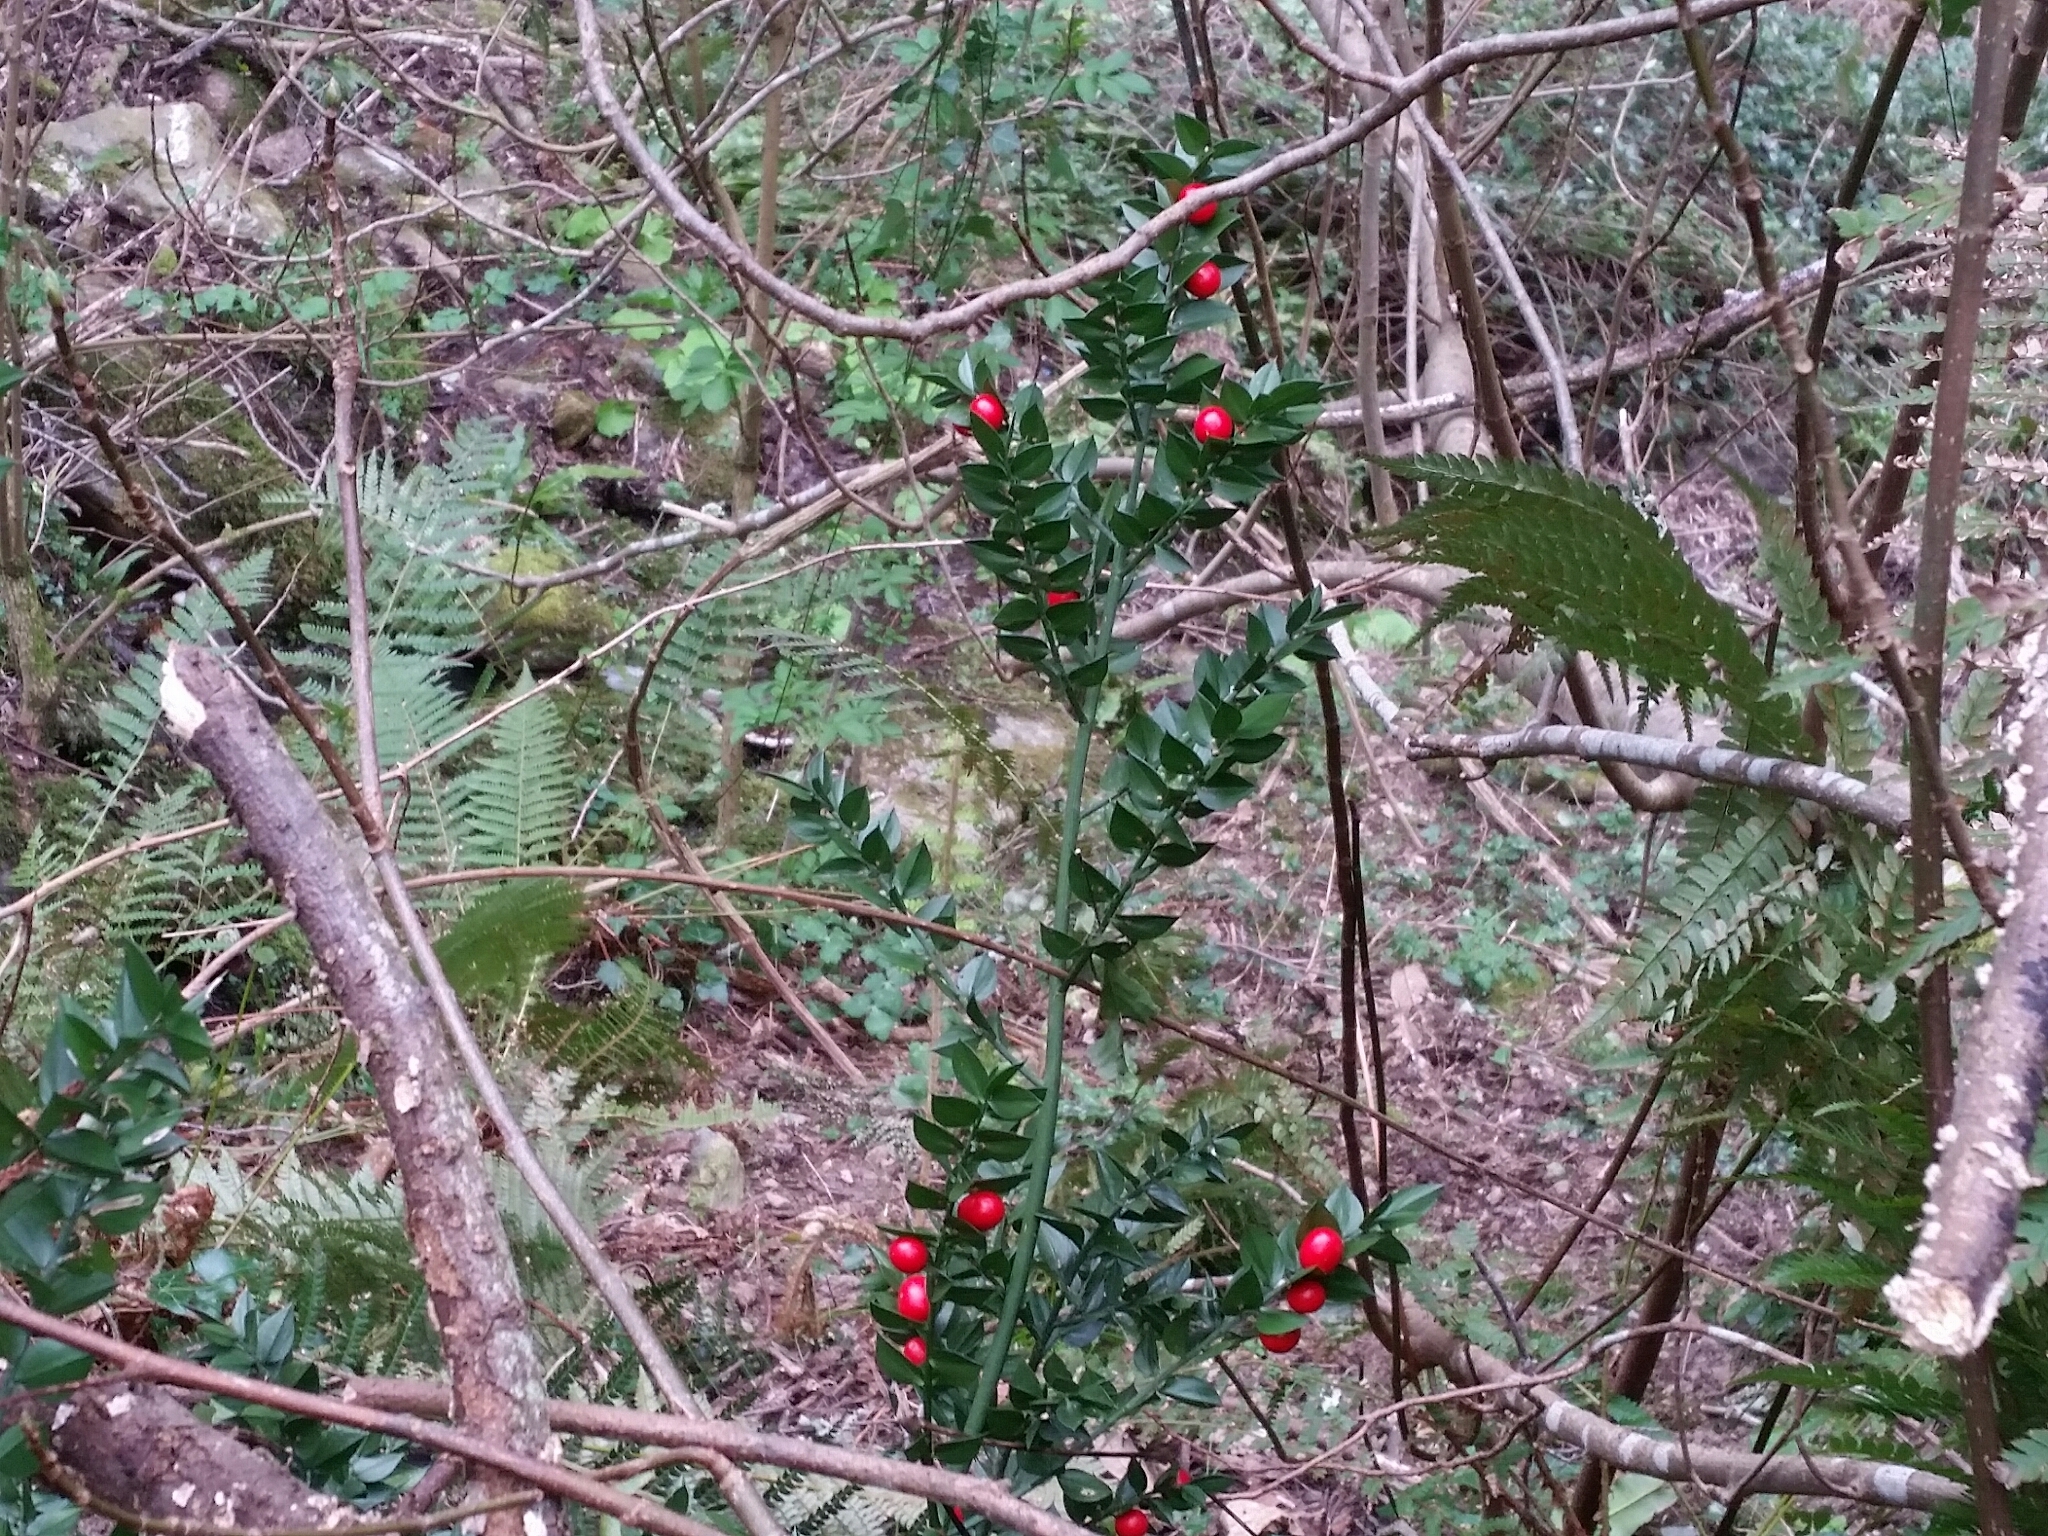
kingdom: Plantae
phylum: Tracheophyta
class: Liliopsida
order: Asparagales
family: Asparagaceae
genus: Ruscus
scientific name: Ruscus aculeatus
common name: Butcher's-broom
